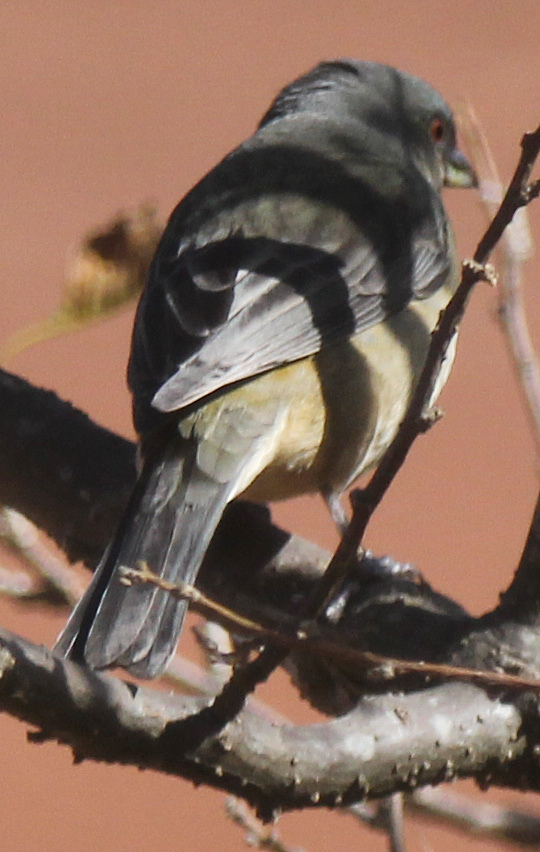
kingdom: Animalia
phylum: Chordata
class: Aves
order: Passeriformes
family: Thraupidae
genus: Rauenia
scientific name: Rauenia bonariensis
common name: Blue-and-yellow tanager
